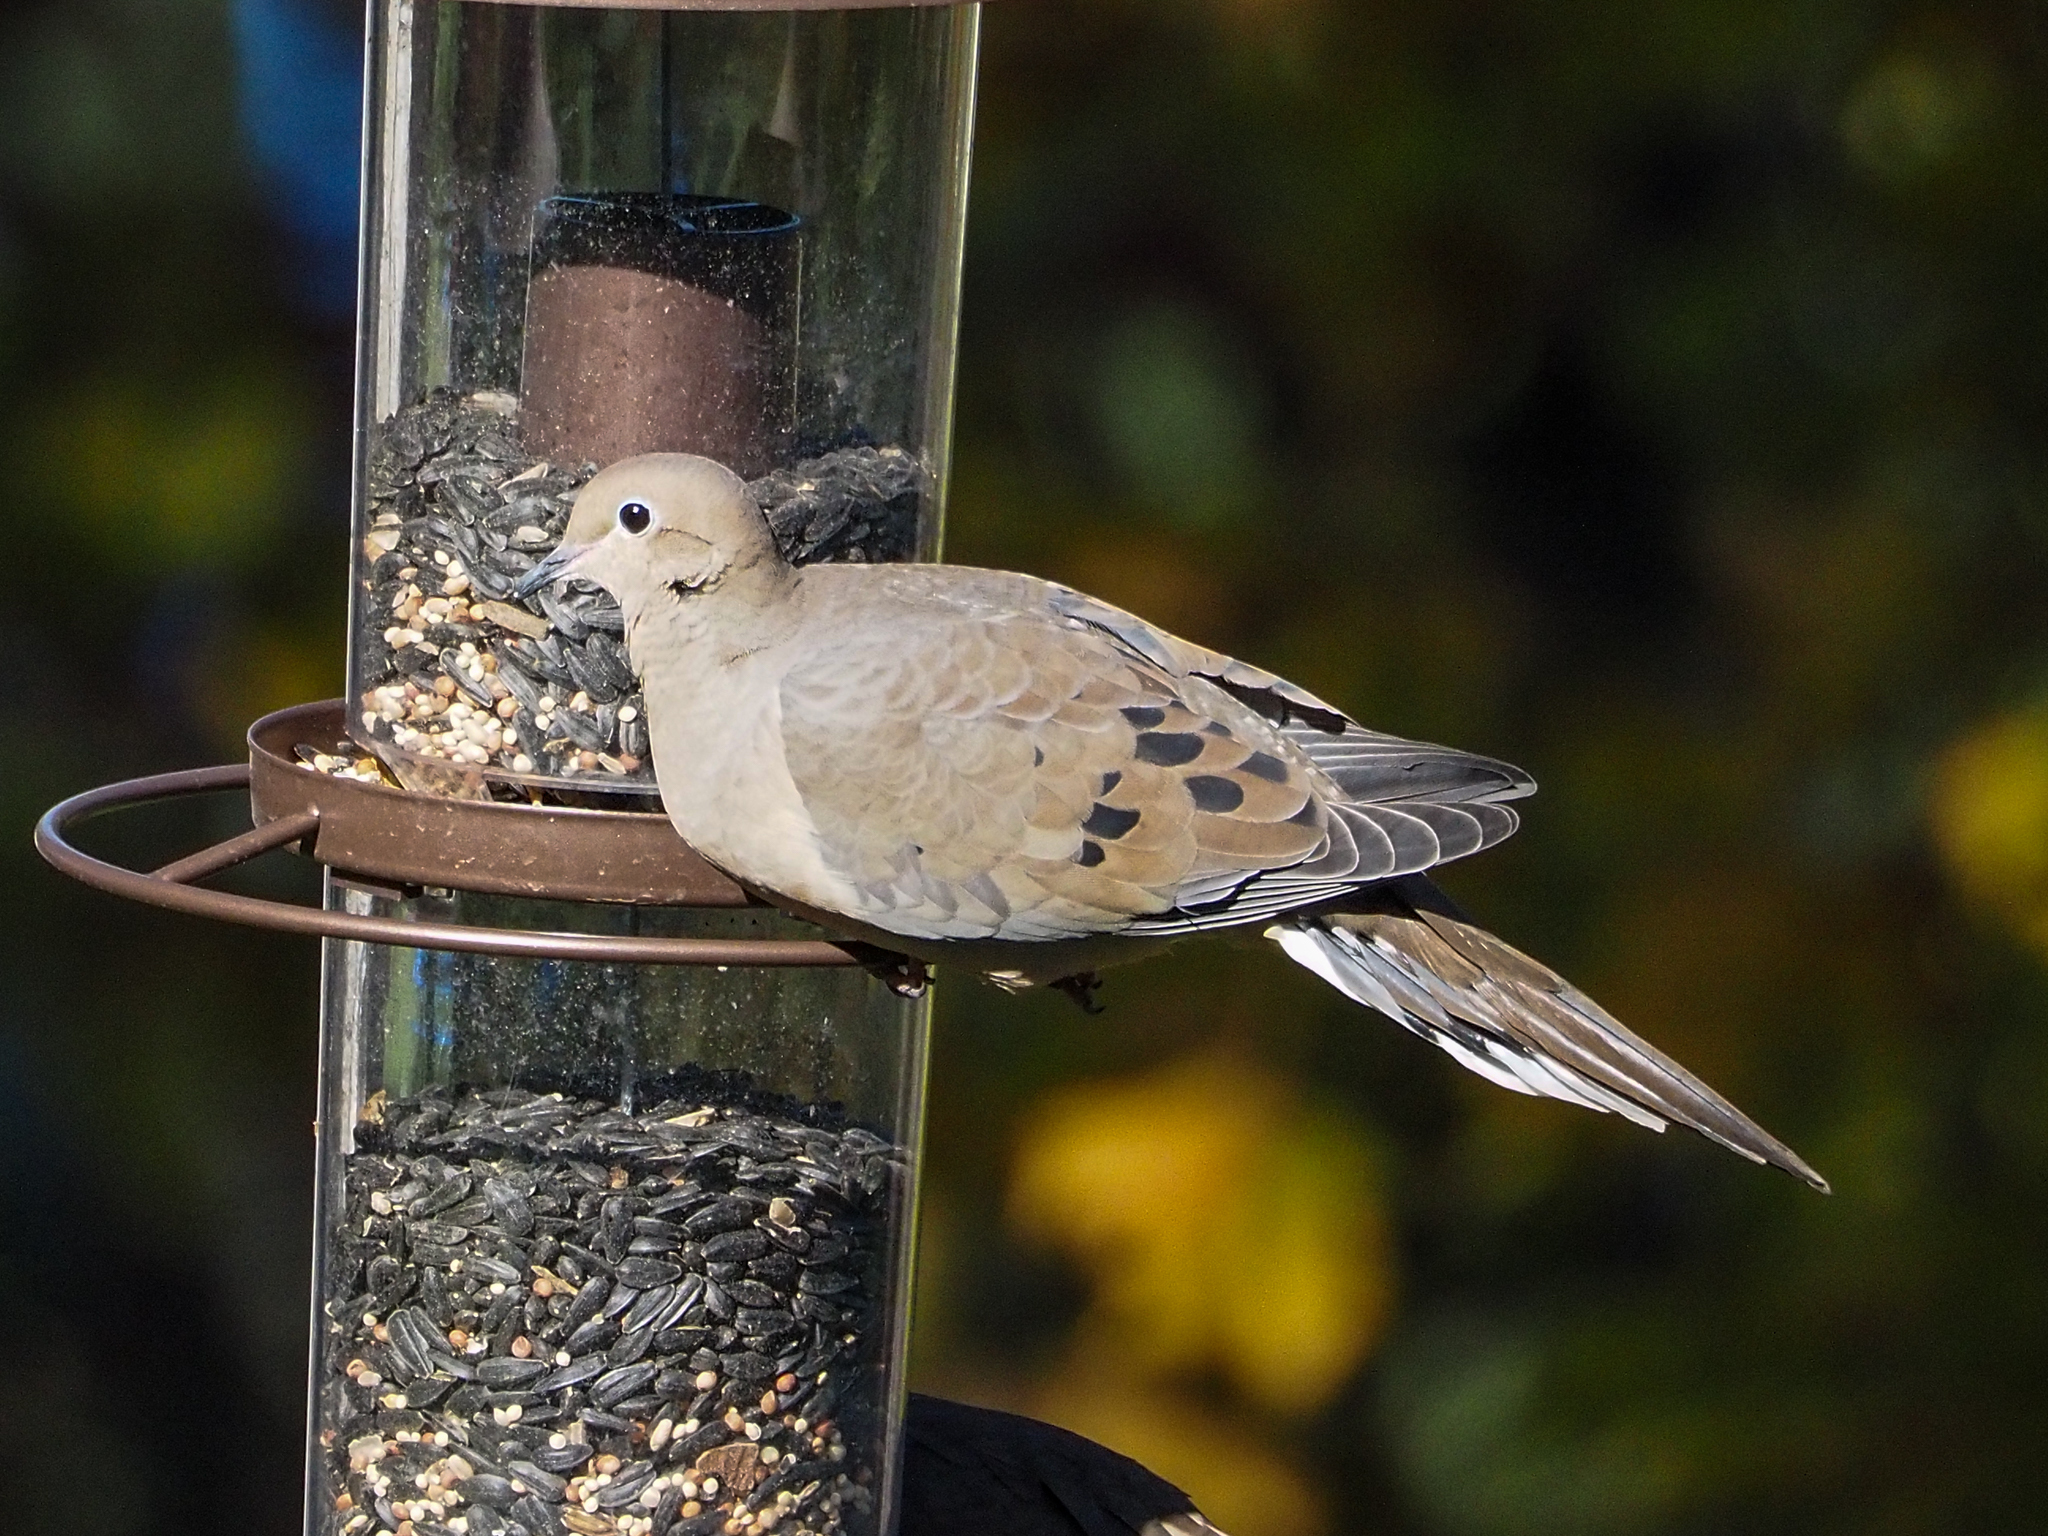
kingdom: Animalia
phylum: Chordata
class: Aves
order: Columbiformes
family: Columbidae
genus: Zenaida
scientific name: Zenaida macroura
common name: Mourning dove
